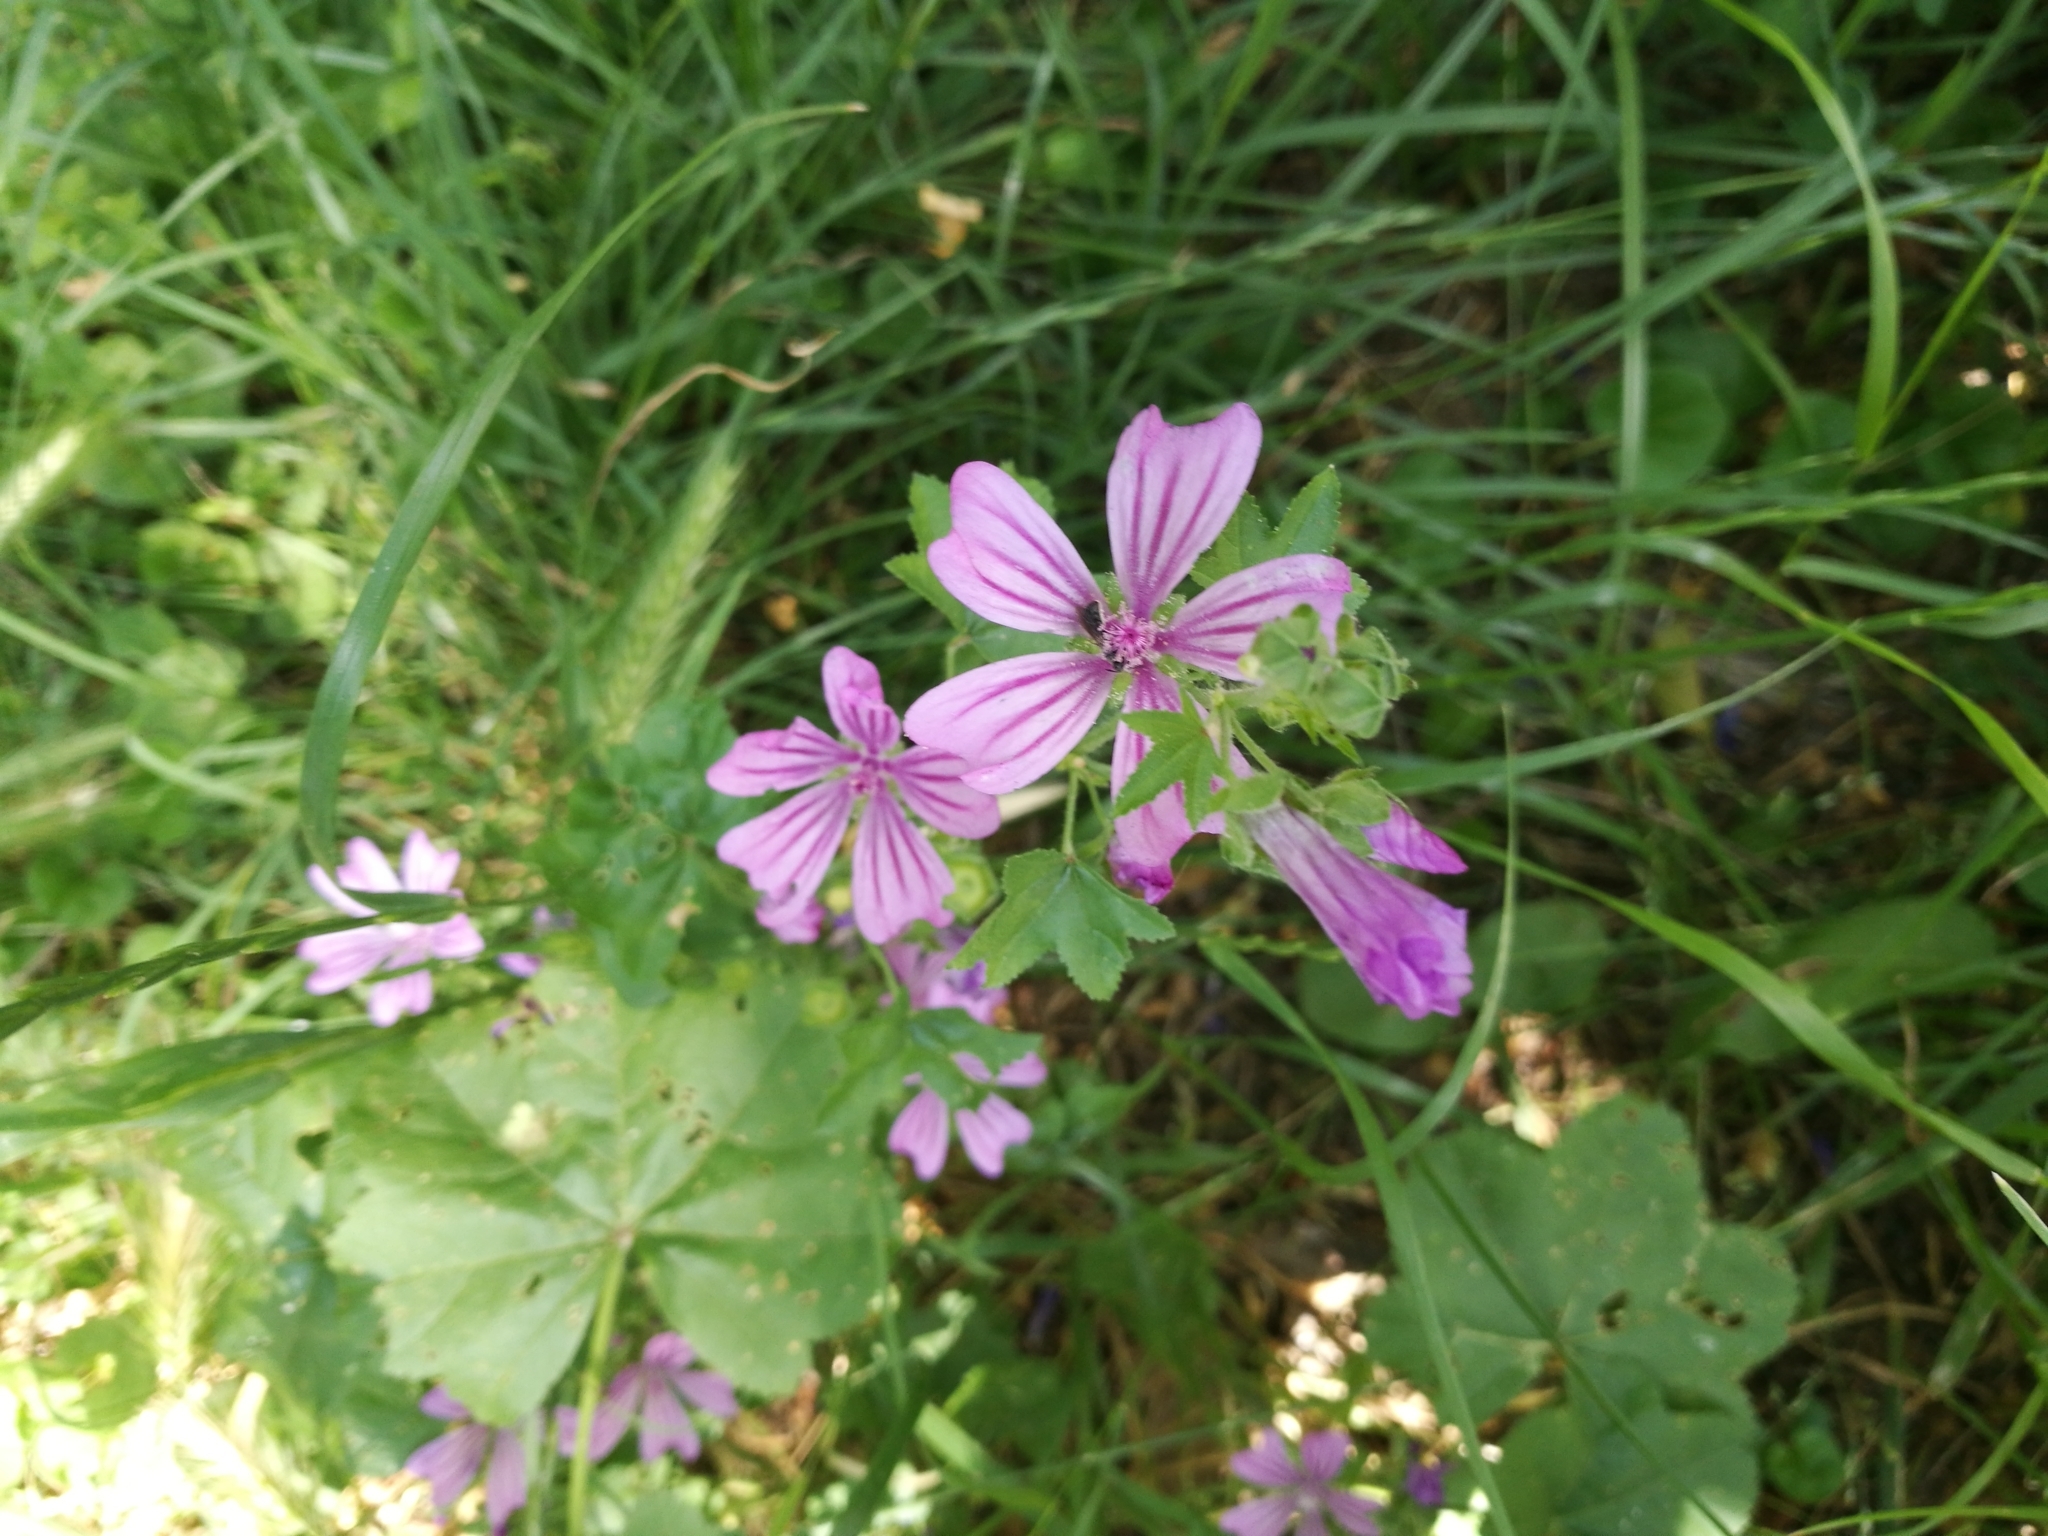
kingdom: Plantae
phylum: Tracheophyta
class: Magnoliopsida
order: Malvales
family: Malvaceae
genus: Malva
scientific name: Malva sylvestris
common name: Common mallow
